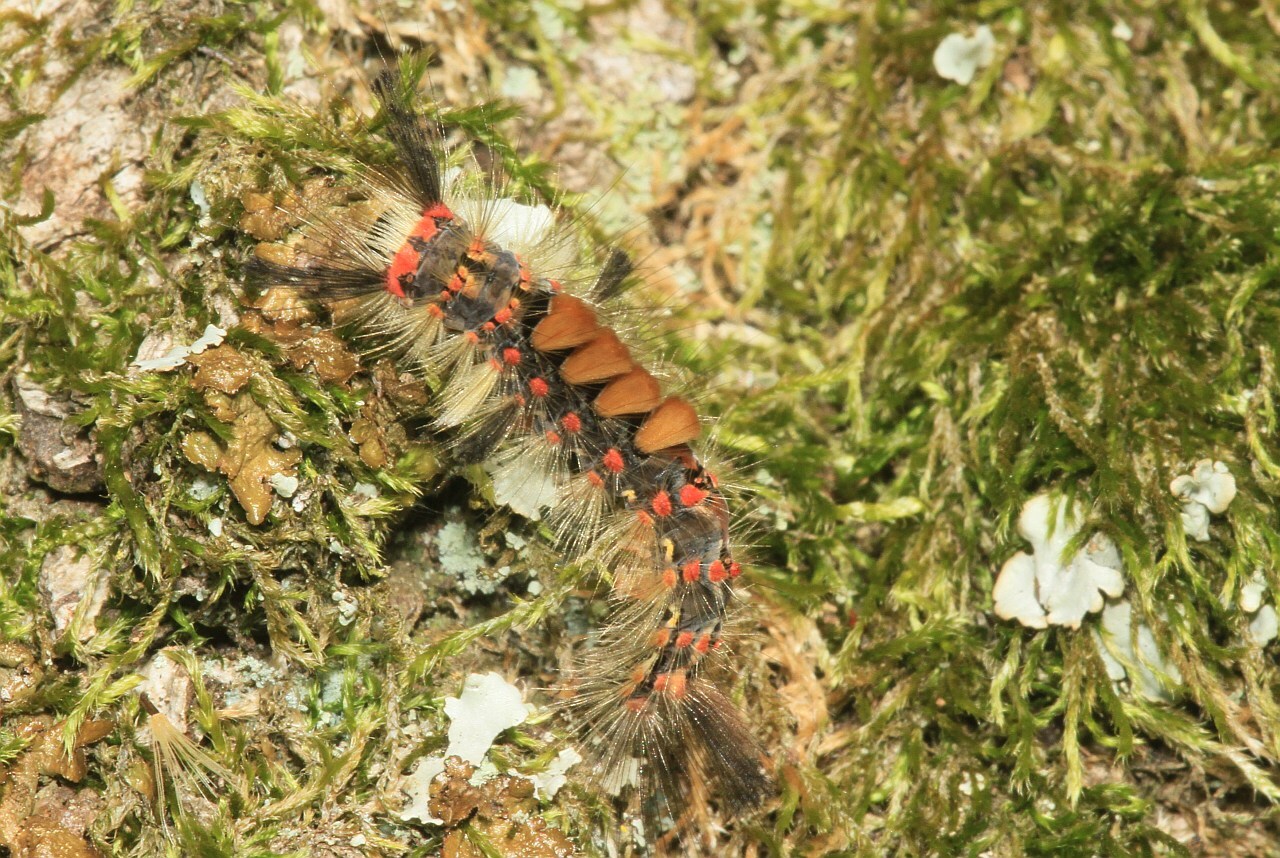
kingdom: Animalia
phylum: Arthropoda
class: Insecta
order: Lepidoptera
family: Erebidae
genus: Orgyia
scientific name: Orgyia antiqua
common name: Vapourer
